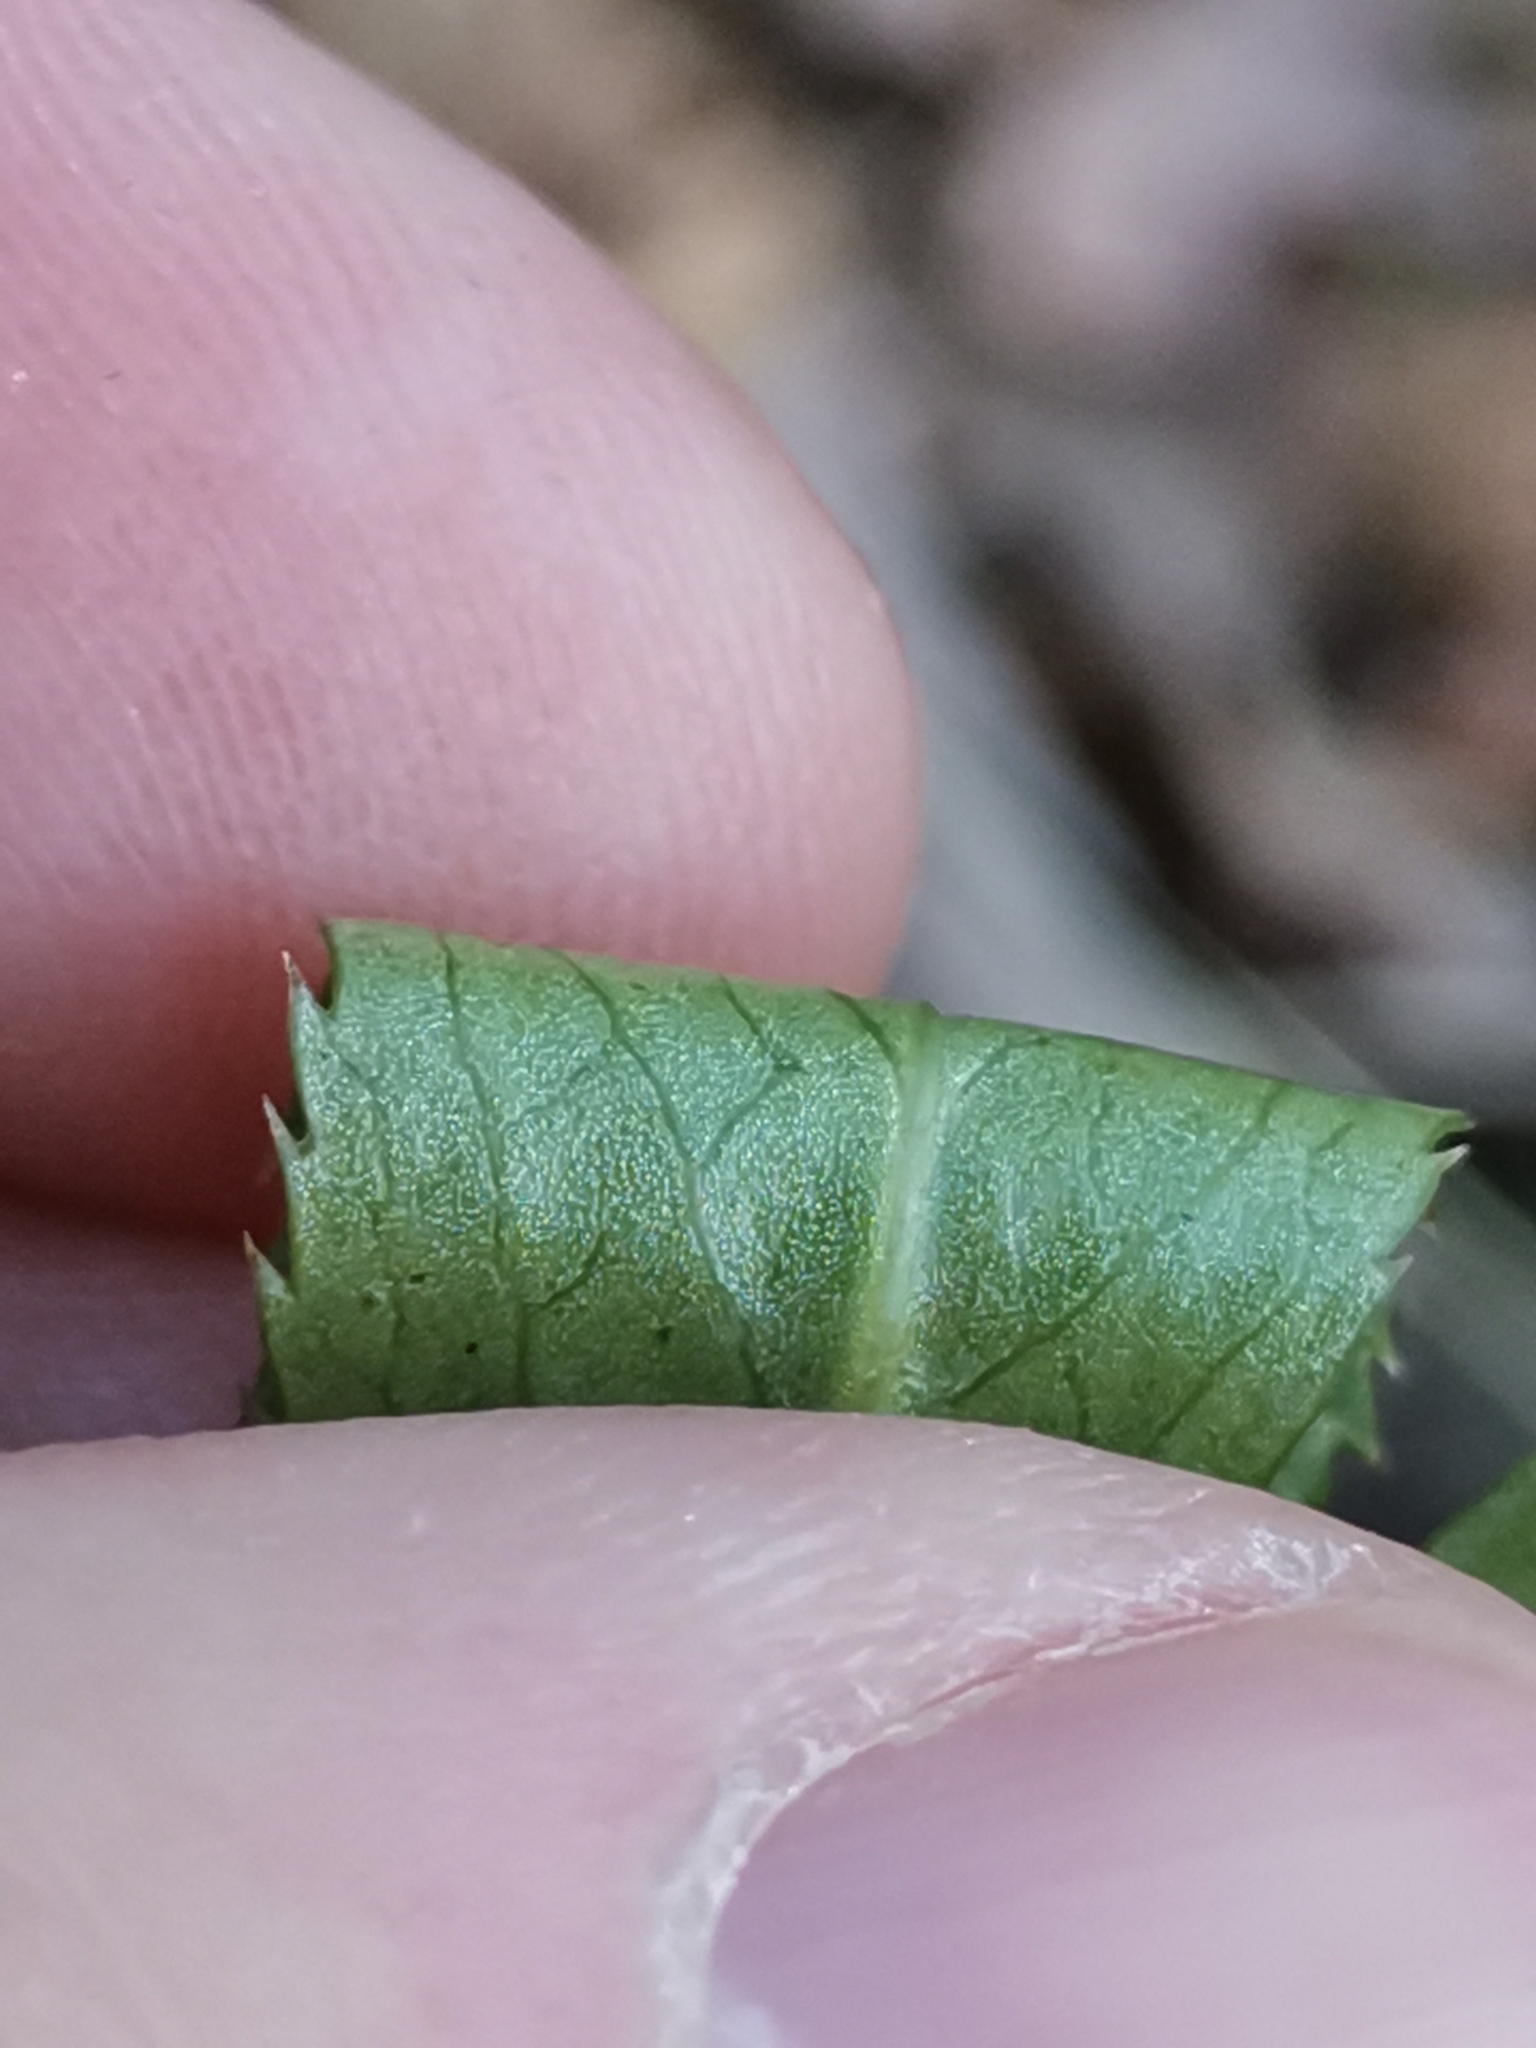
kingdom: Plantae
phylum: Tracheophyta
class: Magnoliopsida
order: Ranunculales
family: Ranunculaceae
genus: Helleborus
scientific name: Helleborus bocconei
